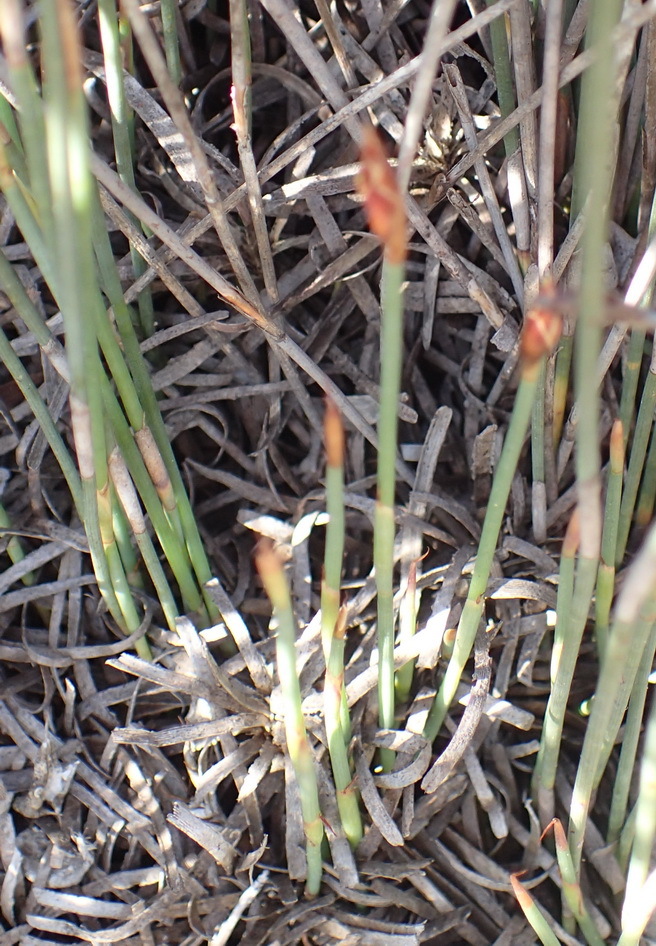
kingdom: Plantae
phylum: Tracheophyta
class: Liliopsida
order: Poales
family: Restionaceae
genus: Hypodiscus
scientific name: Hypodiscus procurrens
